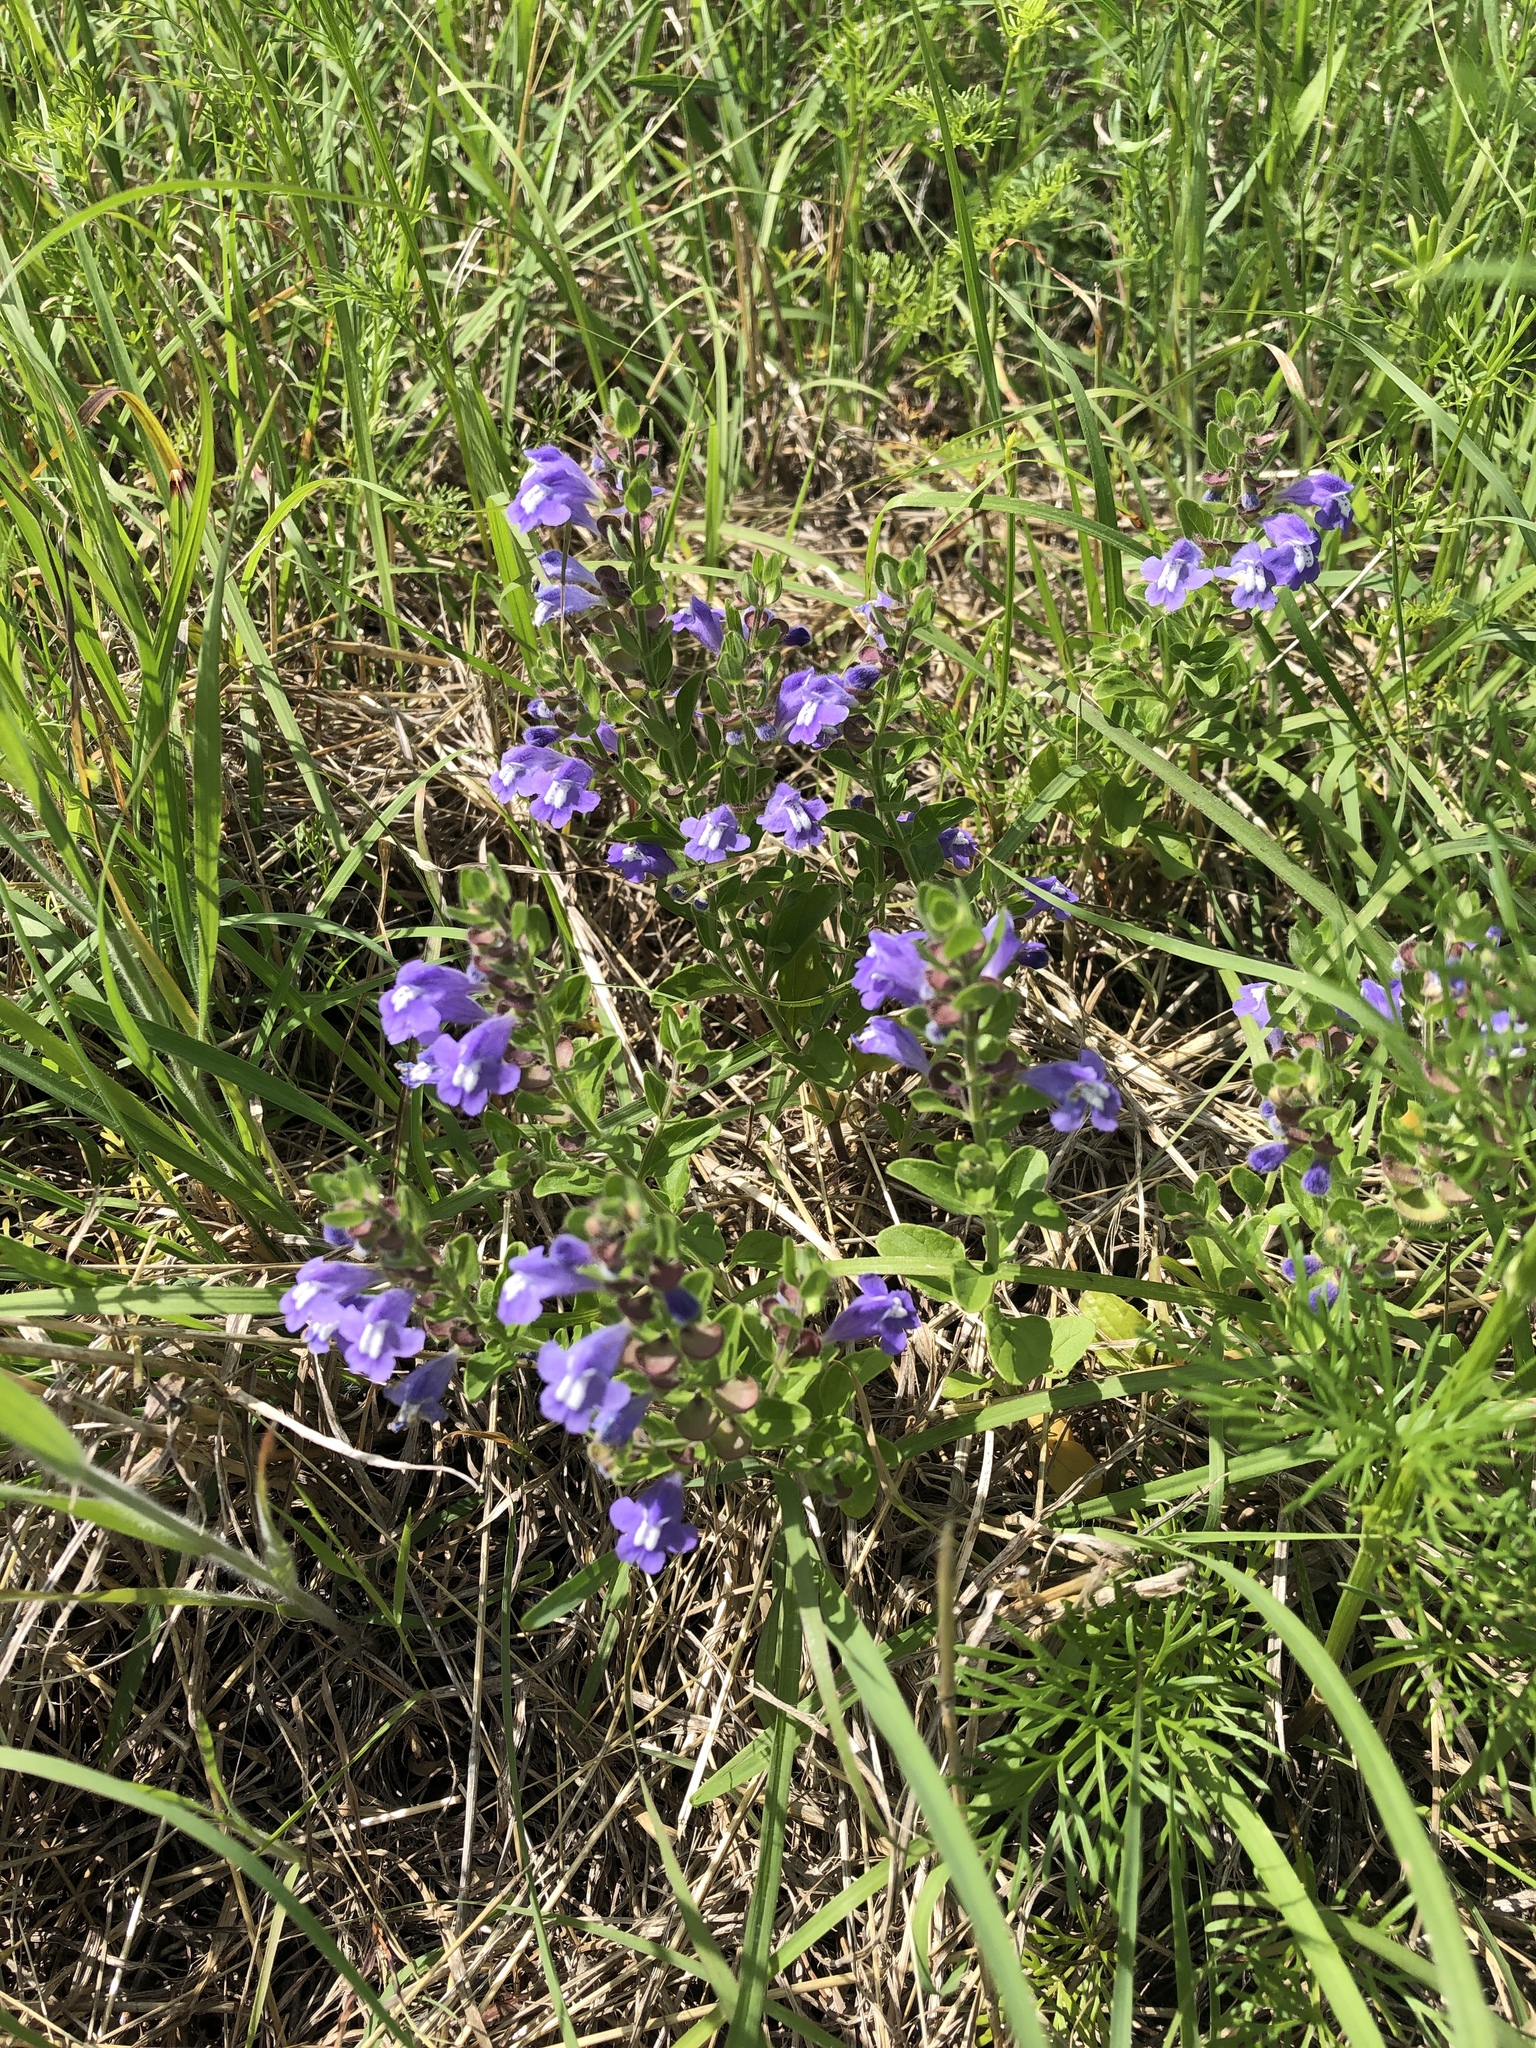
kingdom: Plantae
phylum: Tracheophyta
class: Magnoliopsida
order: Lamiales
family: Lamiaceae
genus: Scutellaria
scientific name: Scutellaria drummondii
